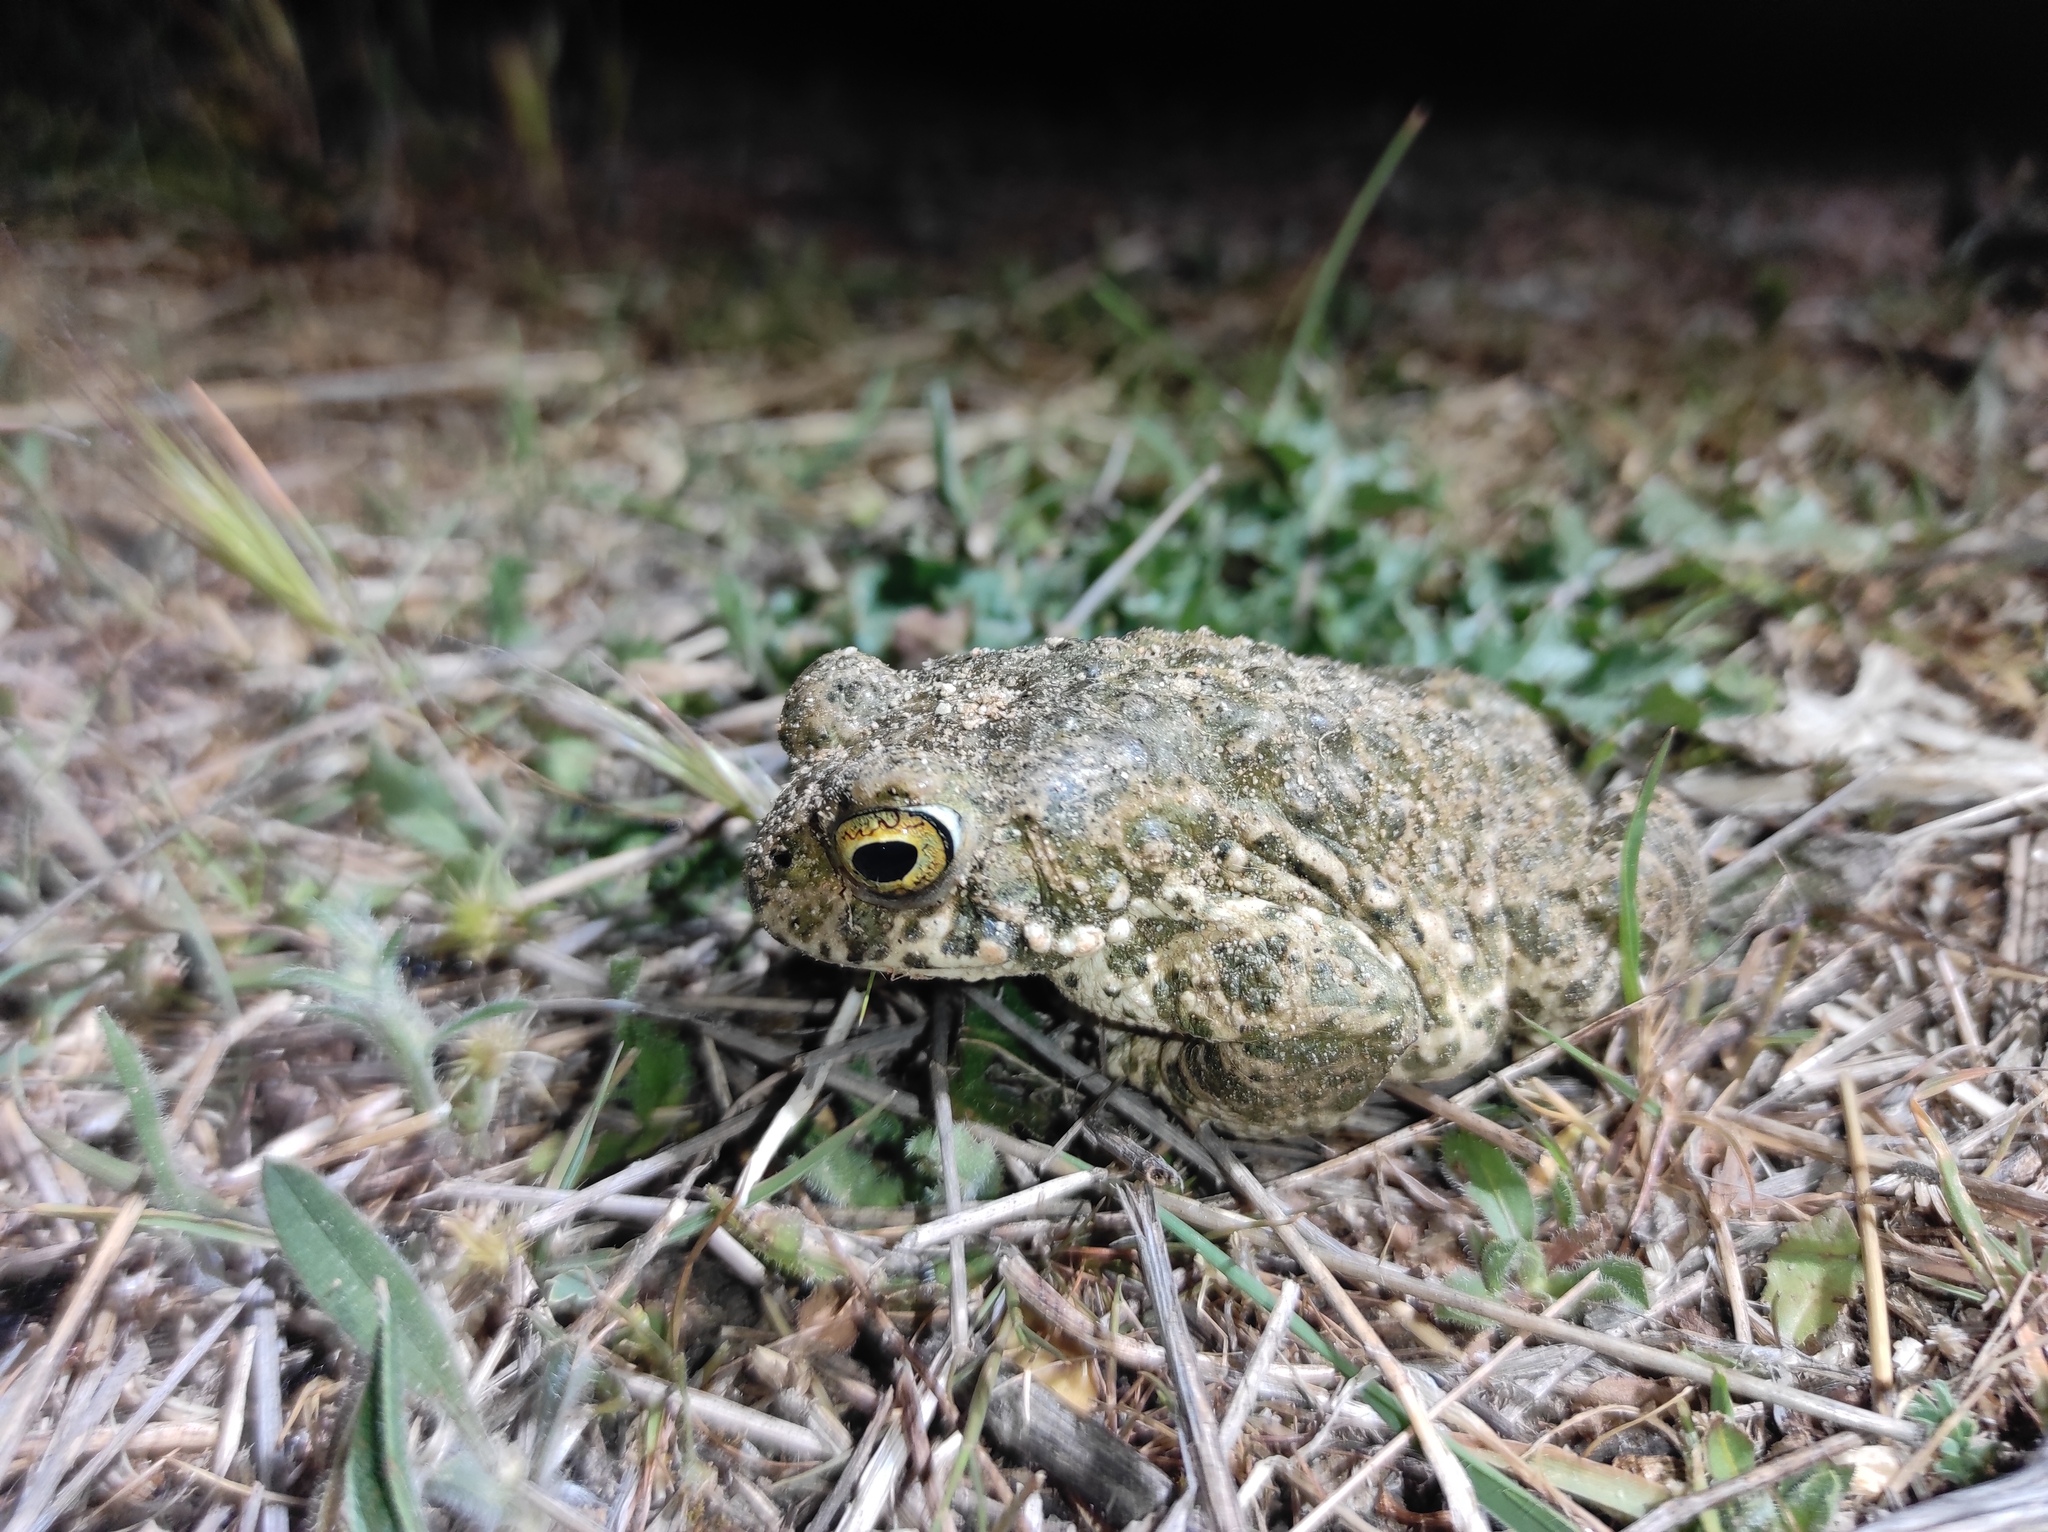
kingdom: Animalia
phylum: Chordata
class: Amphibia
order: Anura
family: Bufonidae
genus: Epidalea
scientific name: Epidalea calamita
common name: Natterjack toad
